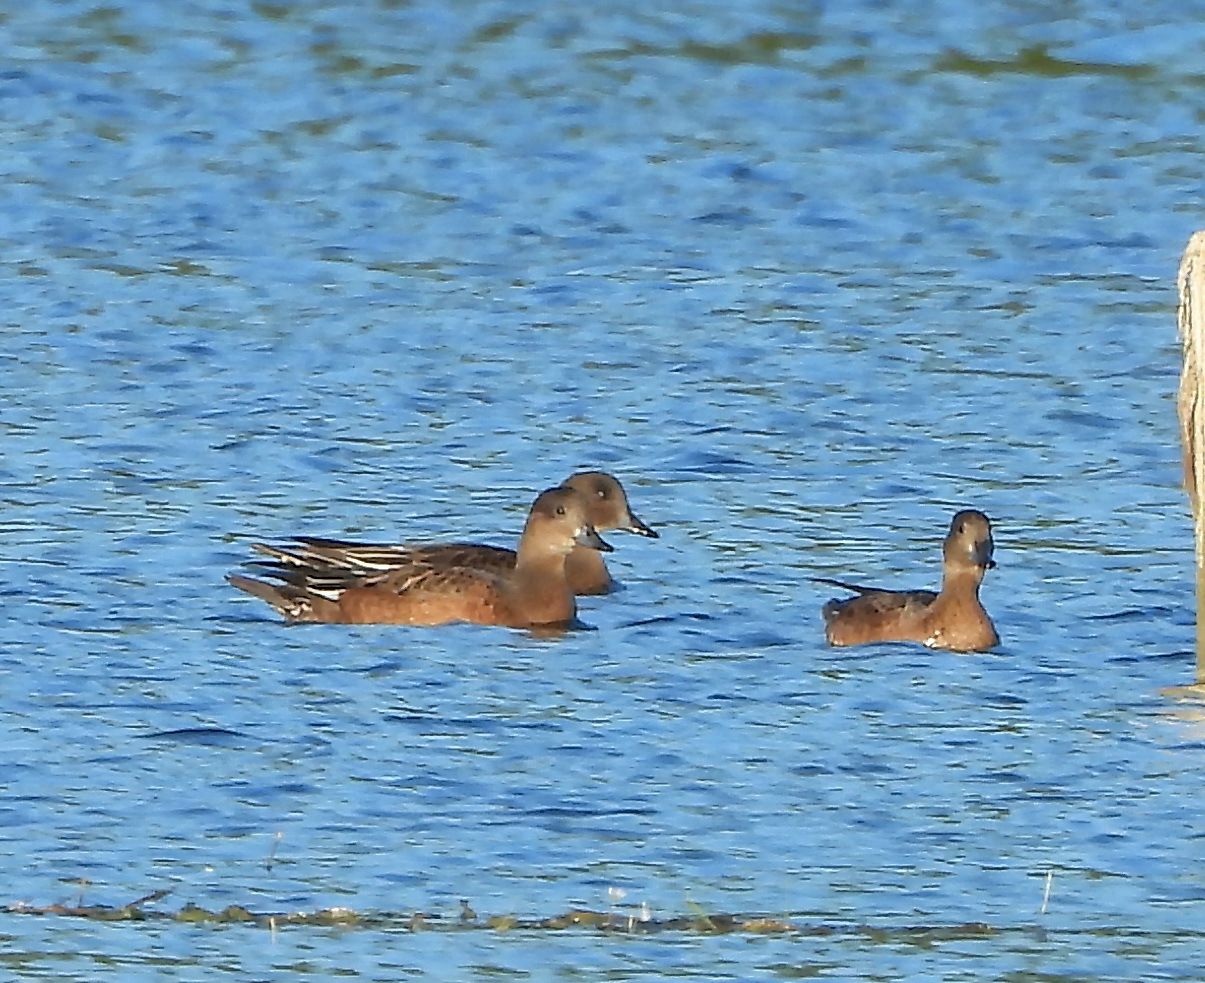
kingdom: Animalia
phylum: Chordata
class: Aves
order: Anseriformes
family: Anatidae
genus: Mareca
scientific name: Mareca penelope
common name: Eurasian wigeon
